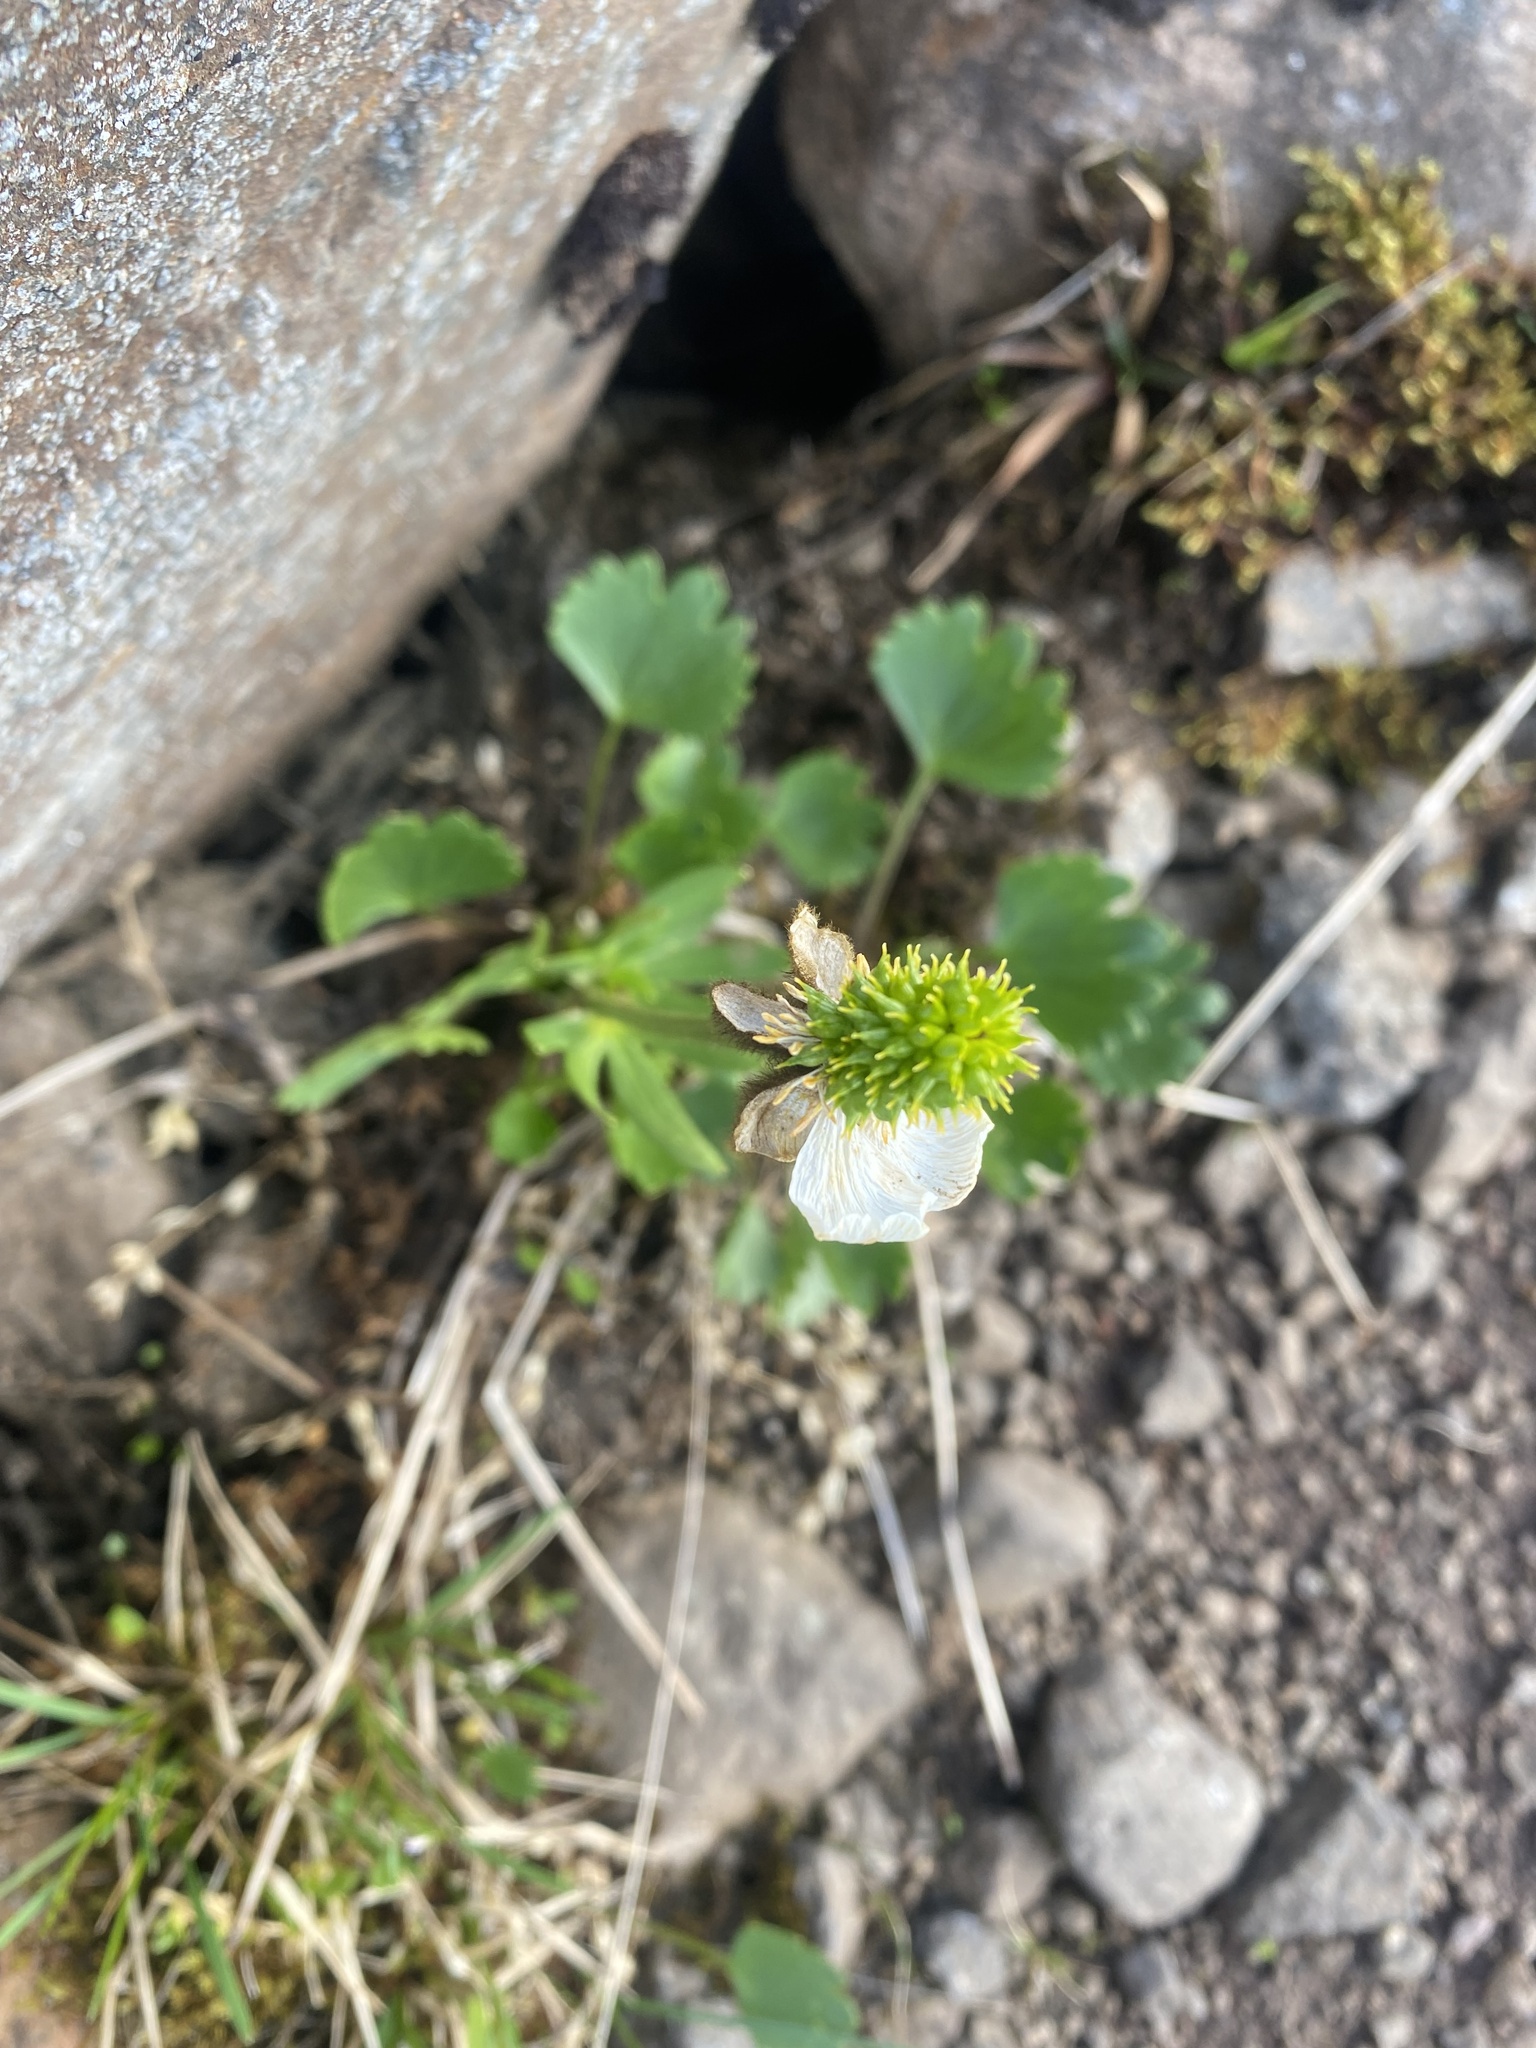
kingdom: Plantae
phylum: Tracheophyta
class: Magnoliopsida
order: Ranunculales
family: Ranunculaceae
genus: Ranunculus
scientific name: Ranunculus sulphureus
